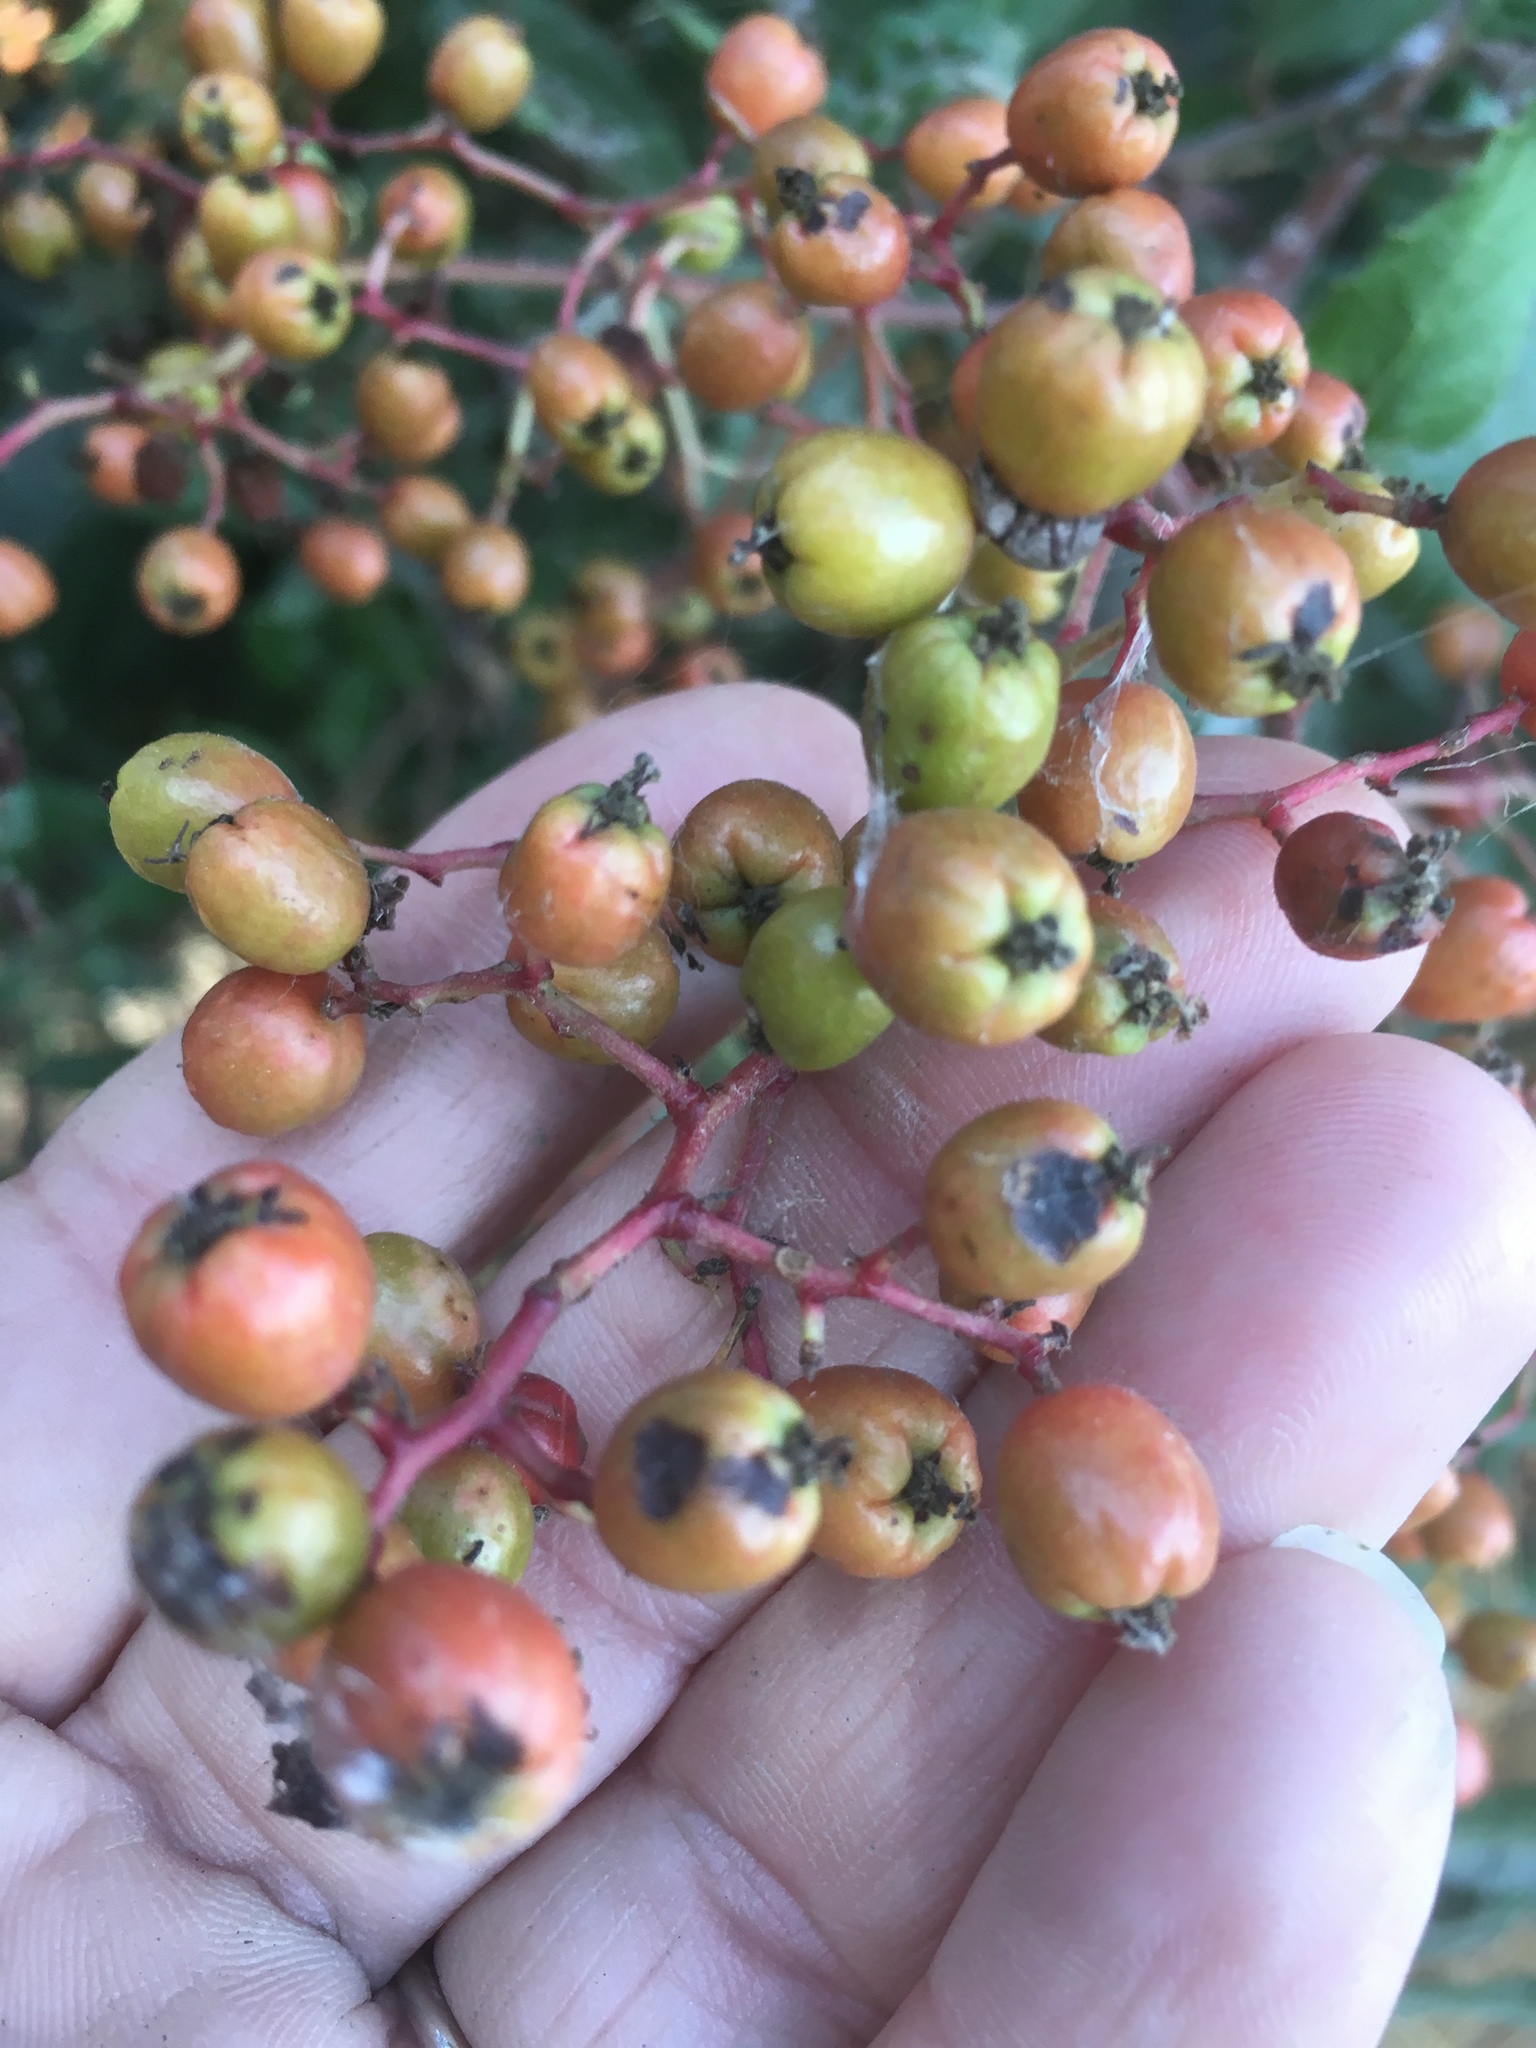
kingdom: Plantae
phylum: Tracheophyta
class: Magnoliopsida
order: Rosales
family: Rosaceae
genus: Heteromeles
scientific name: Heteromeles arbutifolia
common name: California-holly
